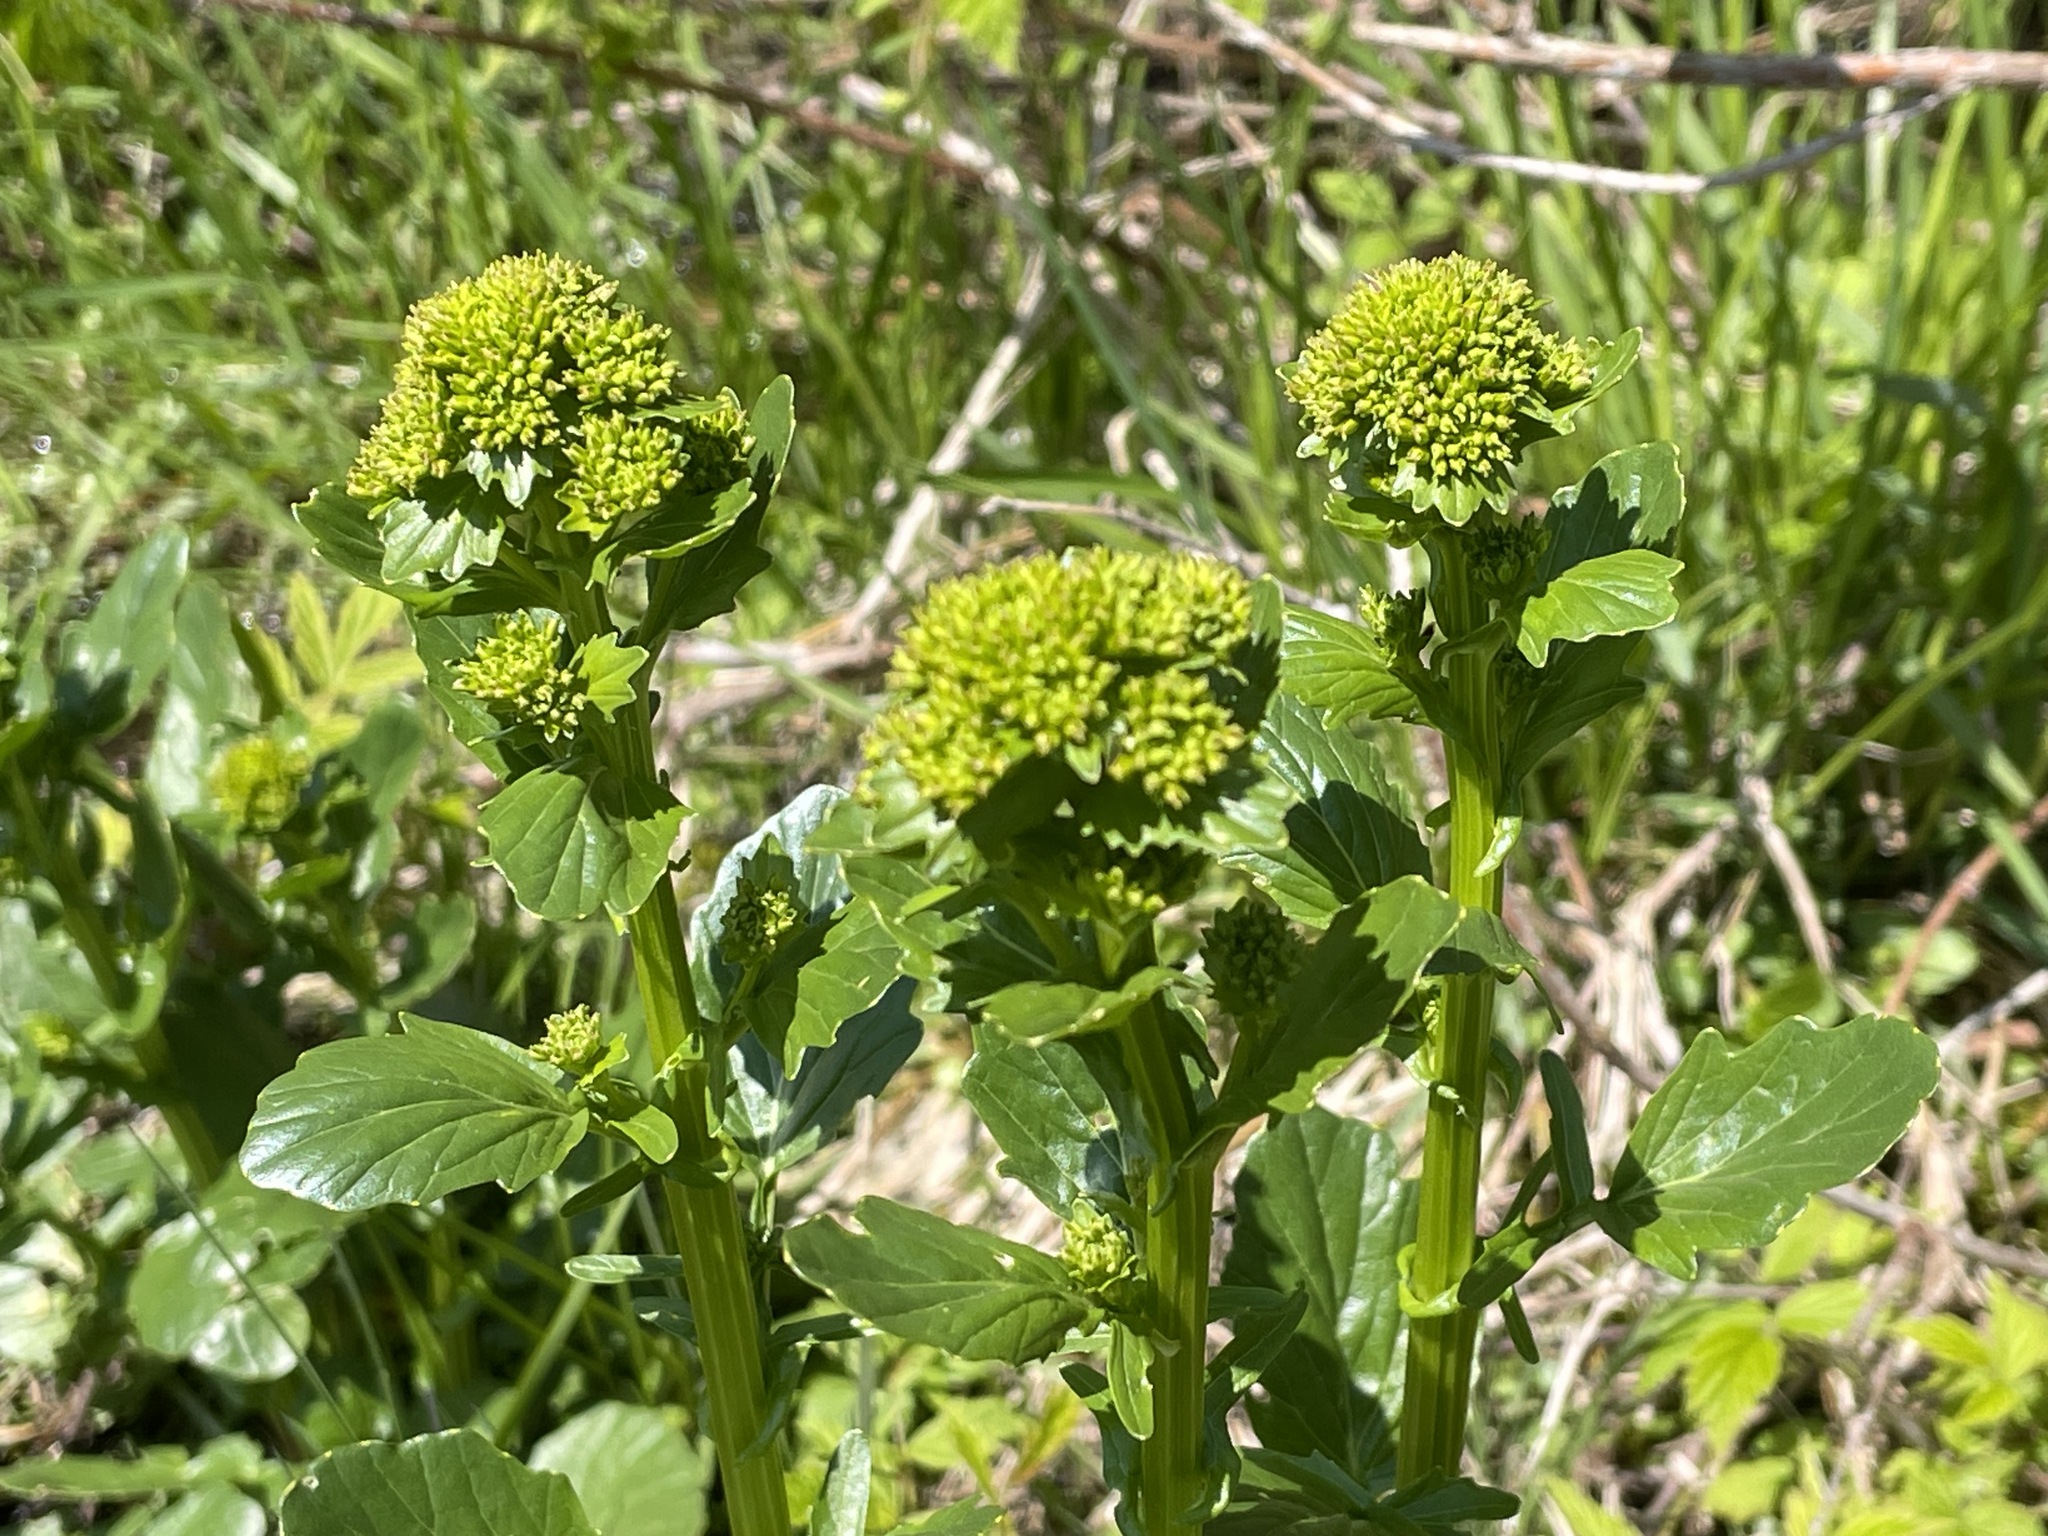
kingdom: Plantae
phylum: Tracheophyta
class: Magnoliopsida
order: Brassicales
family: Brassicaceae
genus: Barbarea
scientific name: Barbarea vulgaris
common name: Cressy-greens
